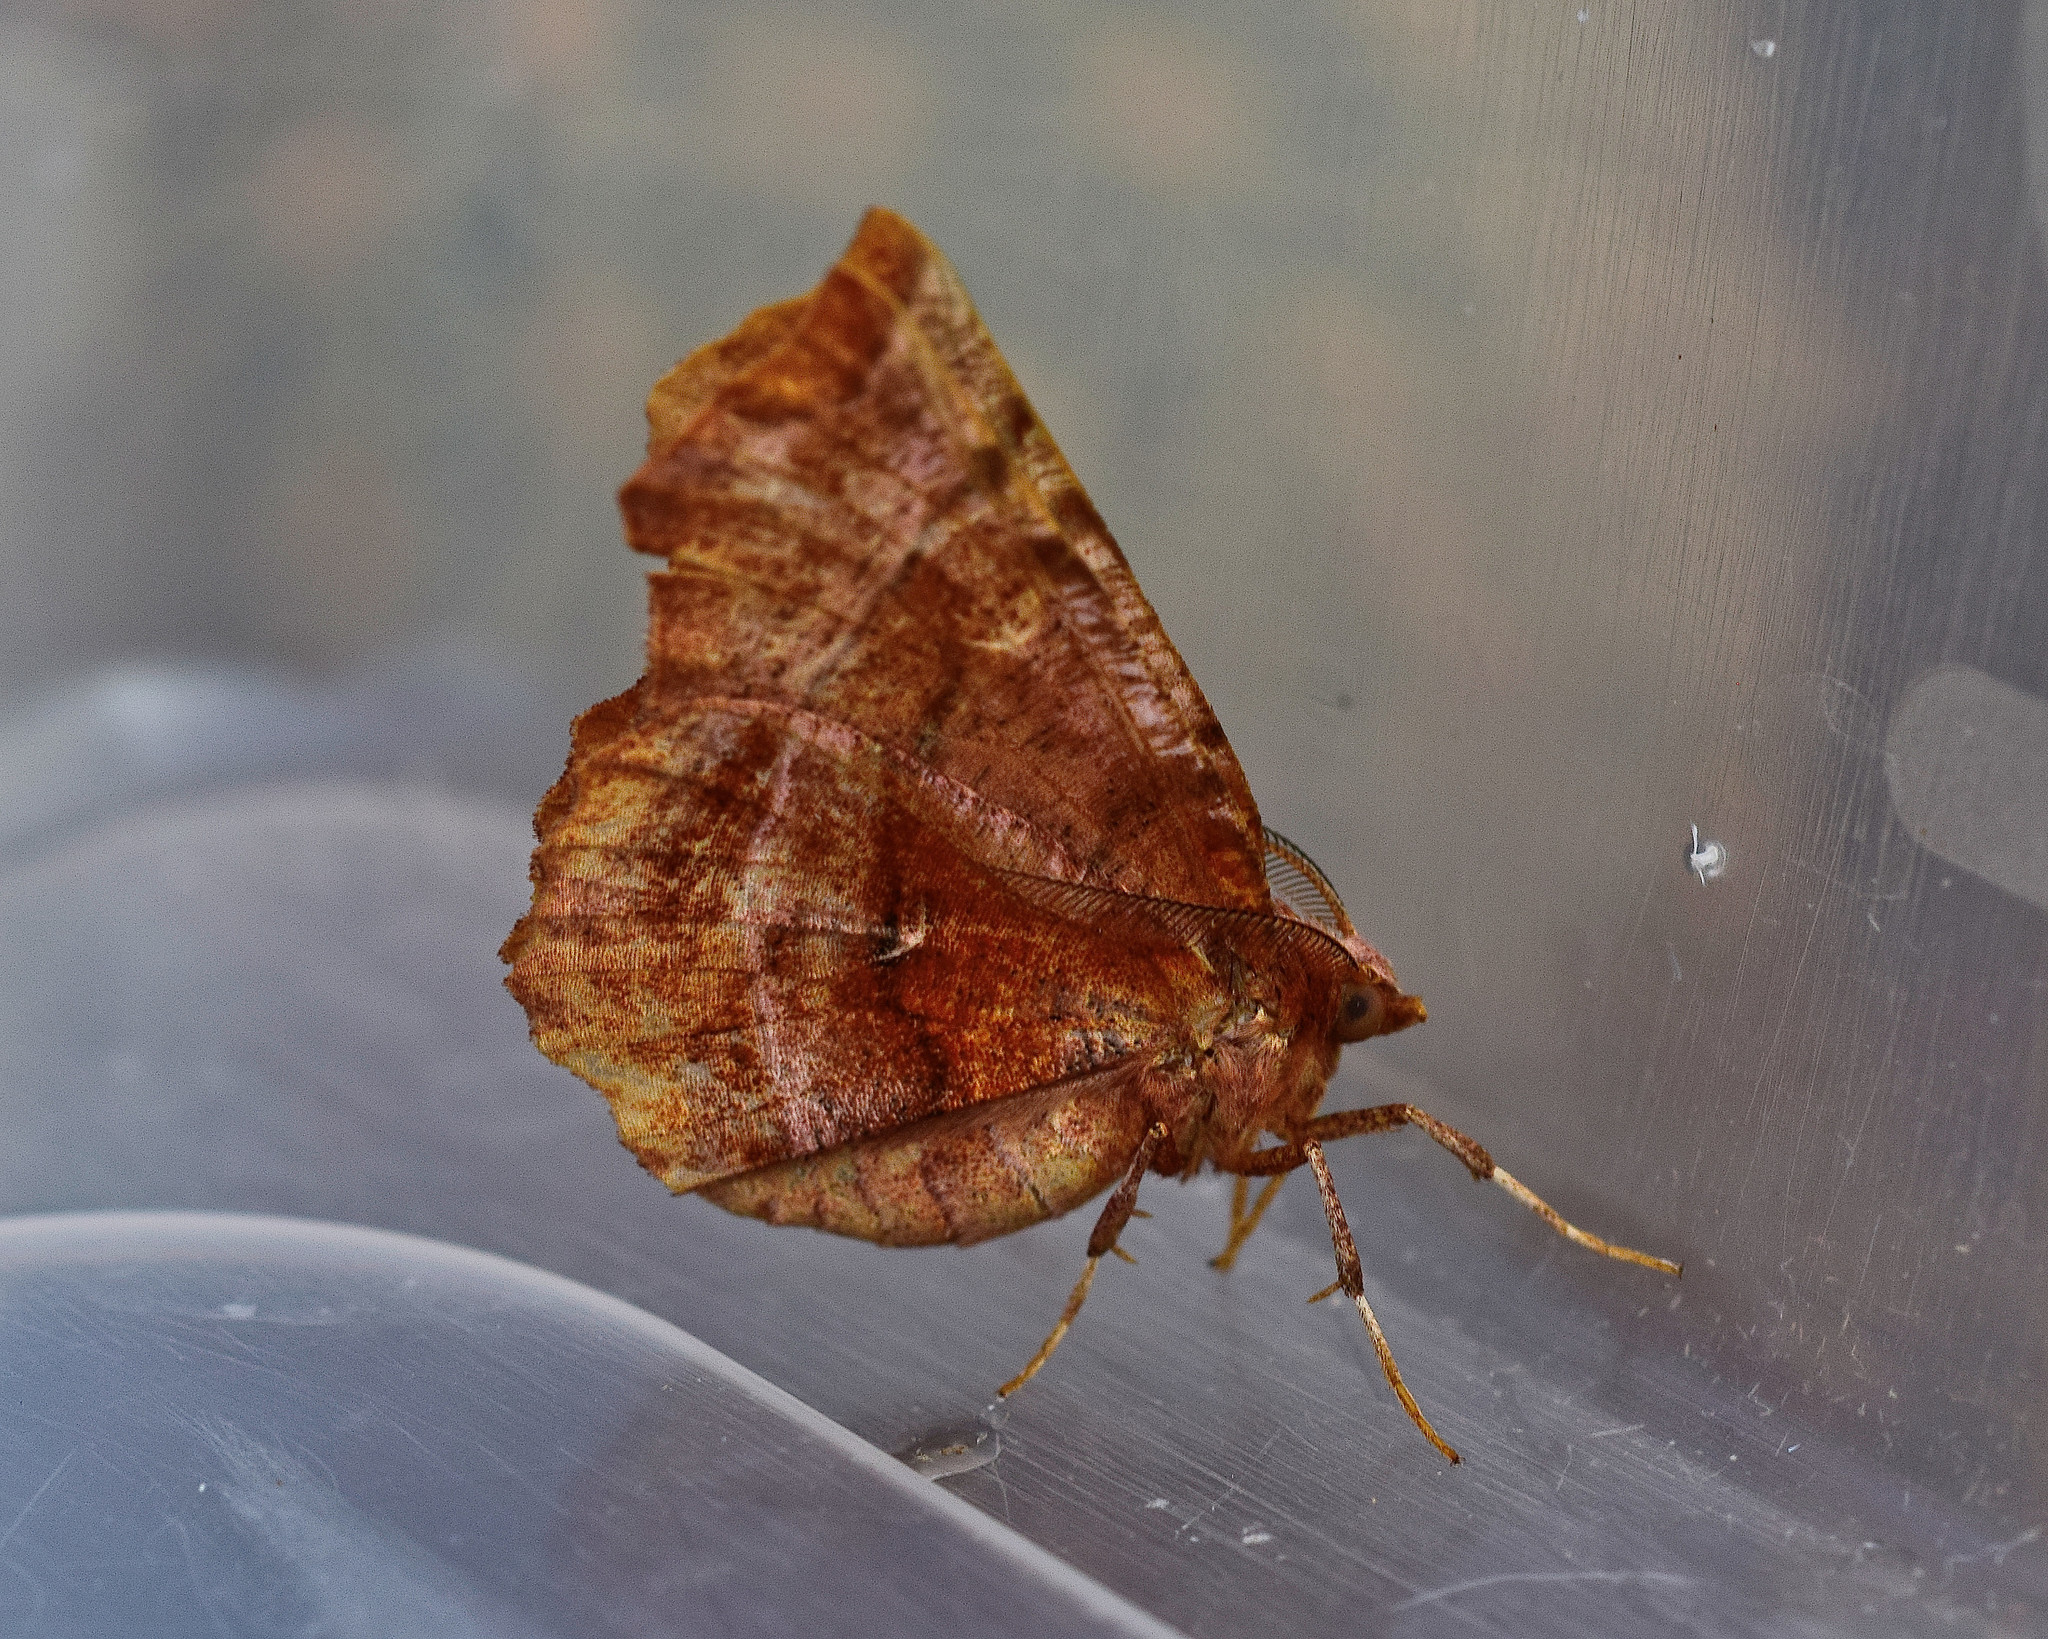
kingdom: Animalia
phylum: Arthropoda
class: Insecta
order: Lepidoptera
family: Geometridae
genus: Selenia
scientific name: Selenia dentaria
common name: Early thorn
